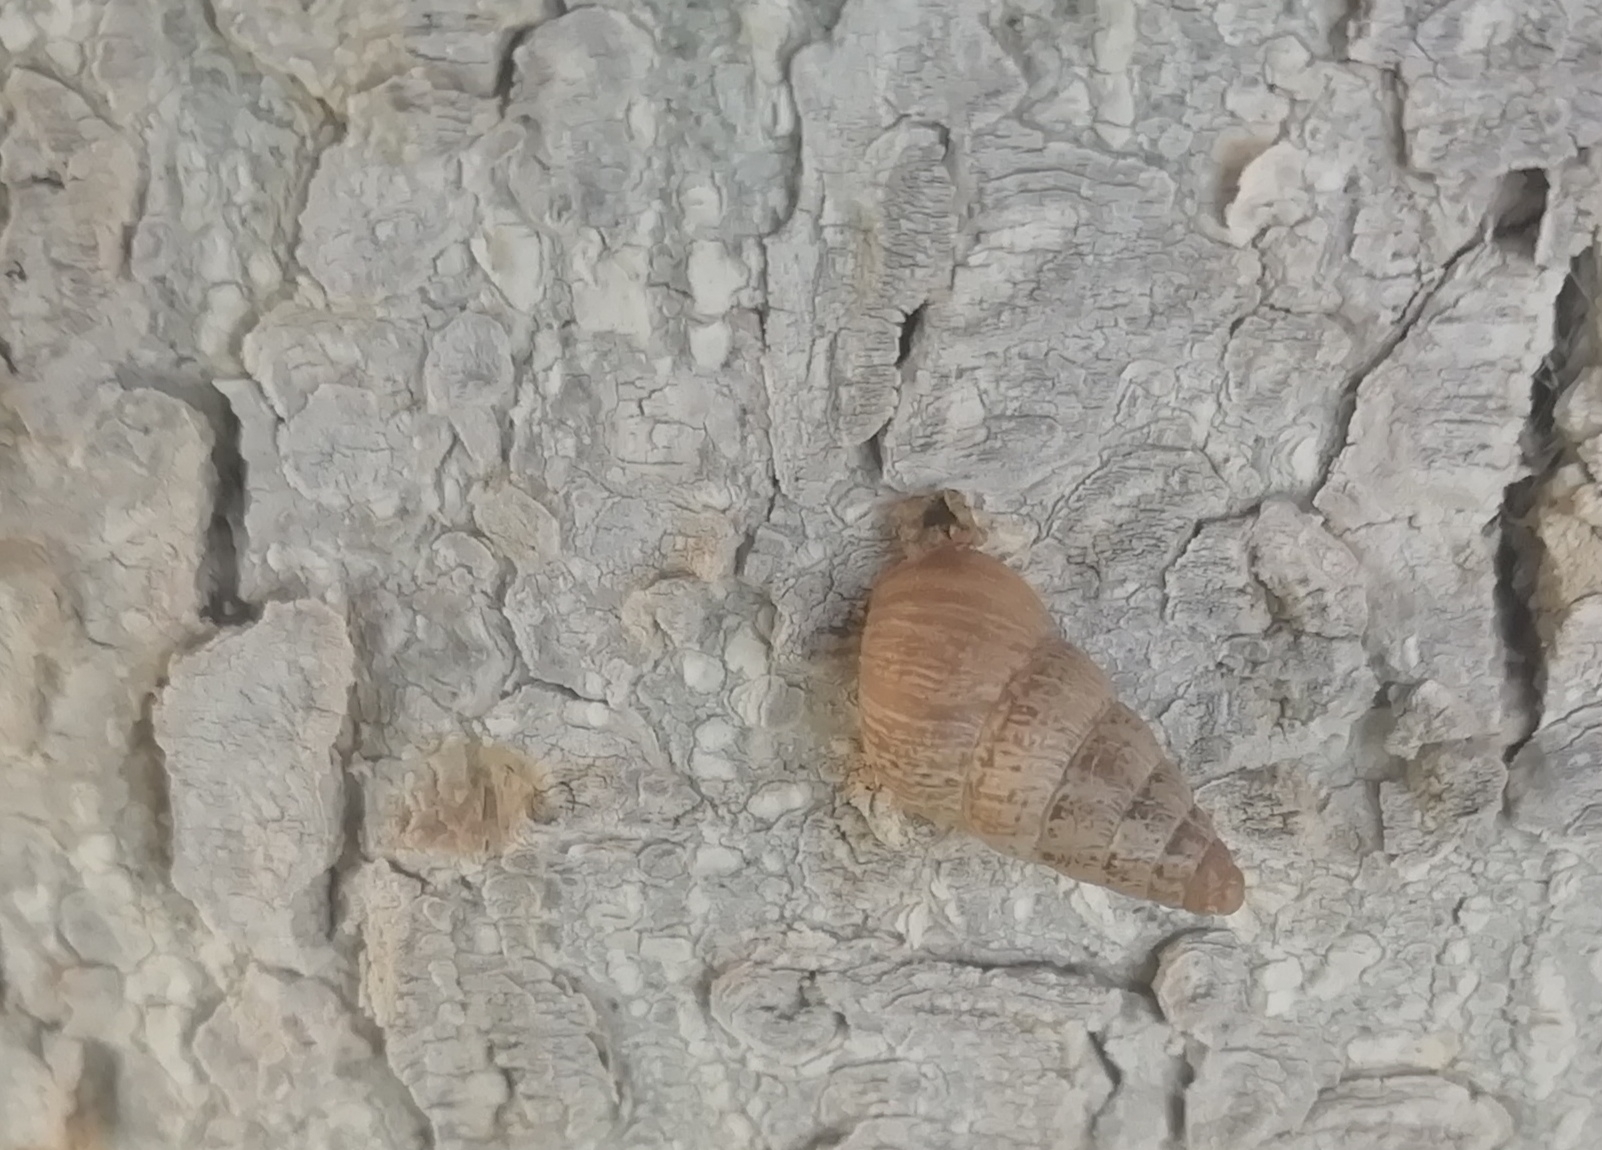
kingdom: Animalia
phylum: Mollusca
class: Gastropoda
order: Stylommatophora
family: Geomitridae
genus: Cochlicella
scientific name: Cochlicella barbara
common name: Potbellied helicellid
